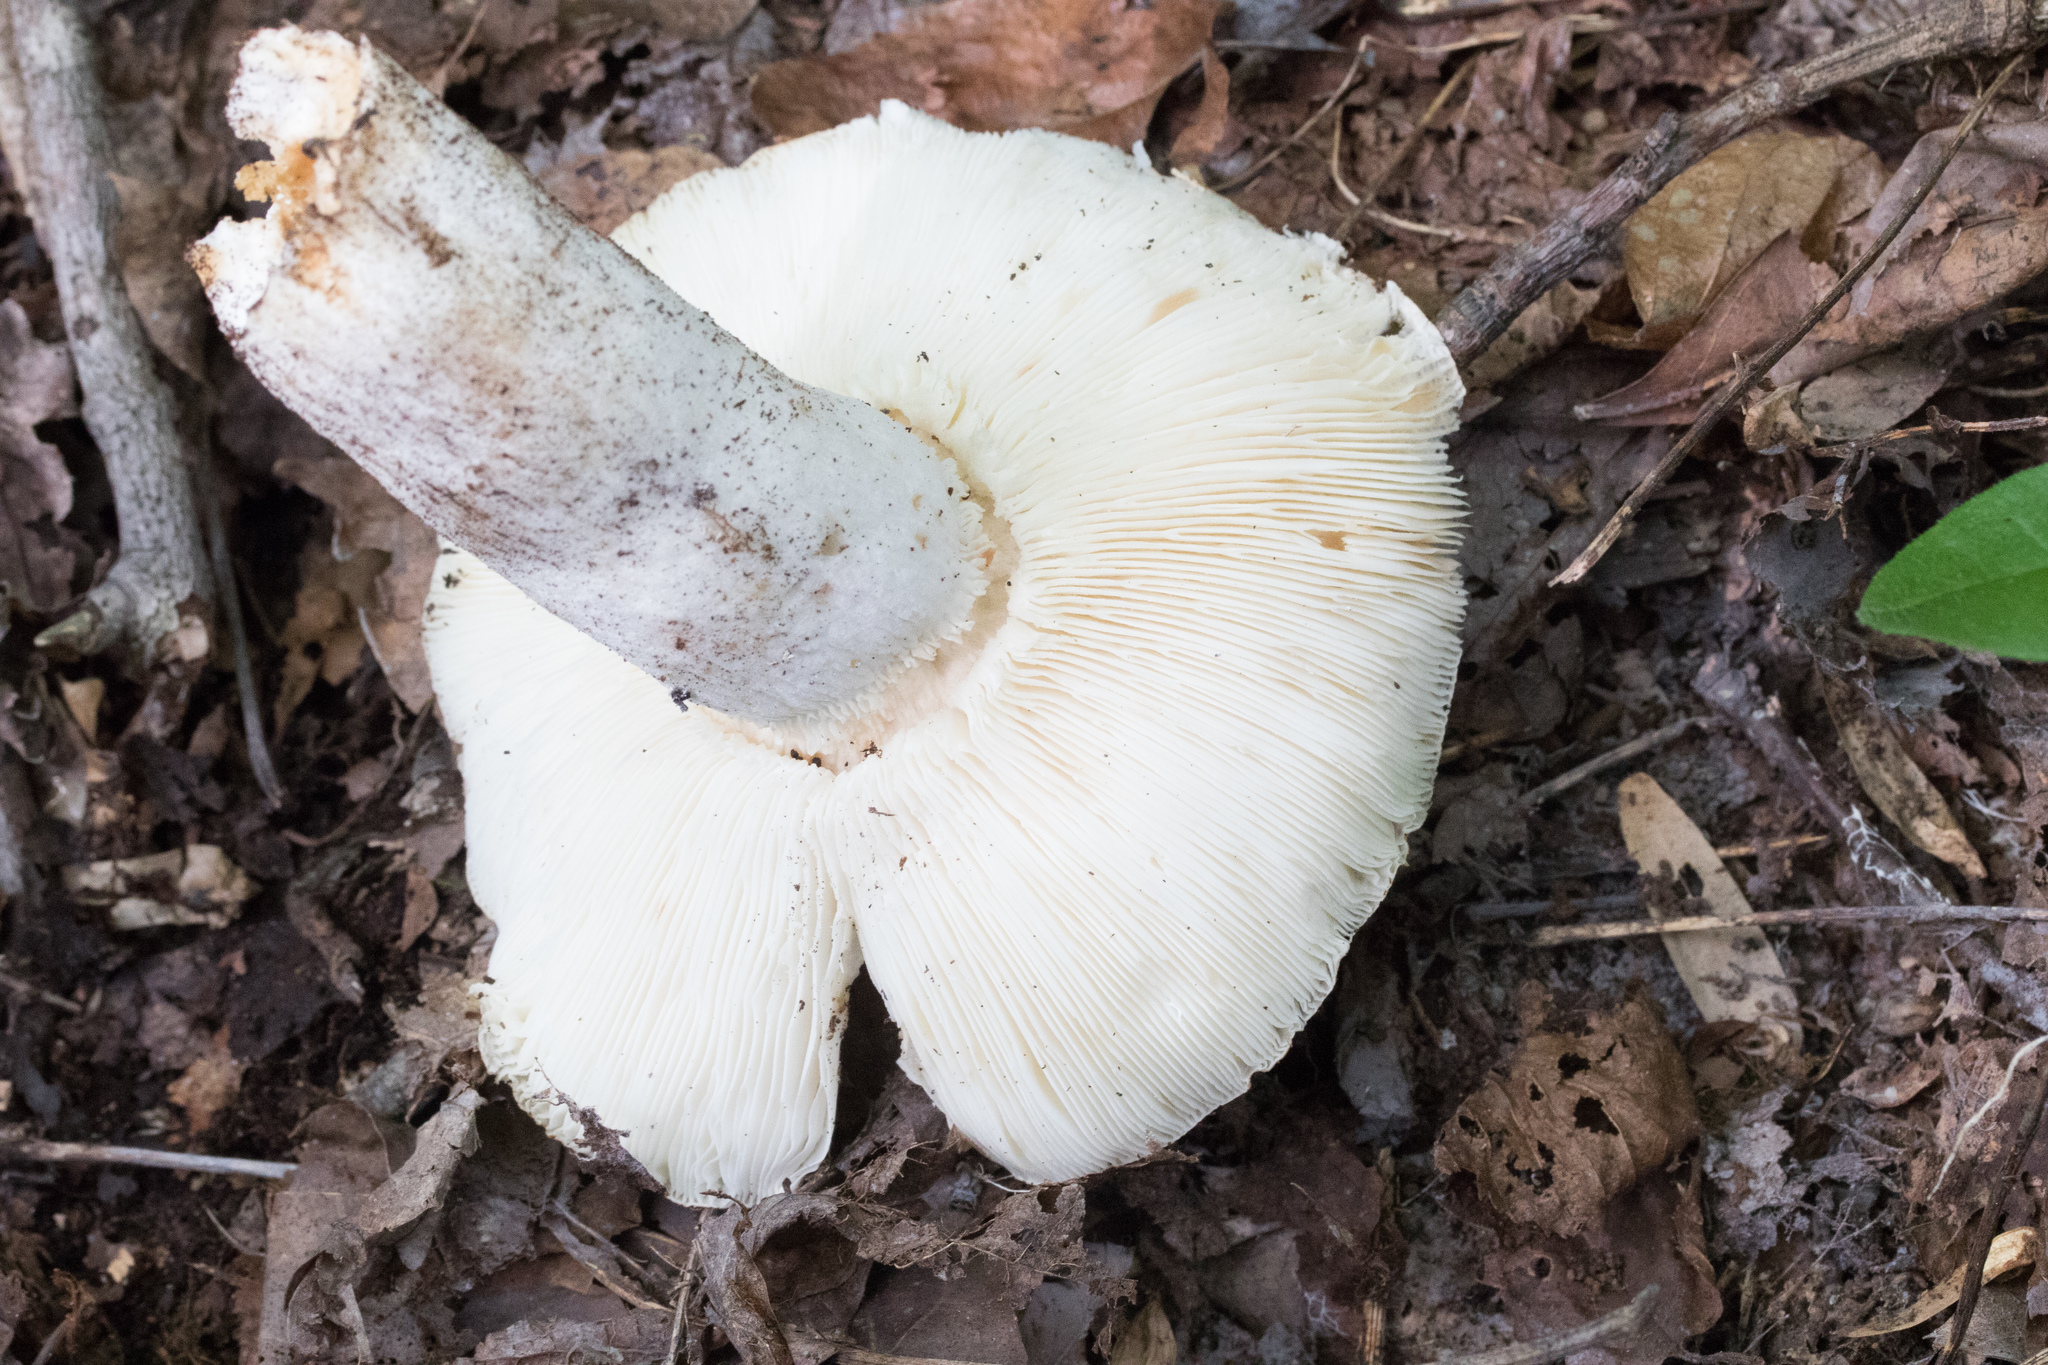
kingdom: Fungi
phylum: Basidiomycota
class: Agaricomycetes
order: Russulales
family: Russulaceae
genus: Russula
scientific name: Russula cyanoxantha
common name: Charcoal burner
